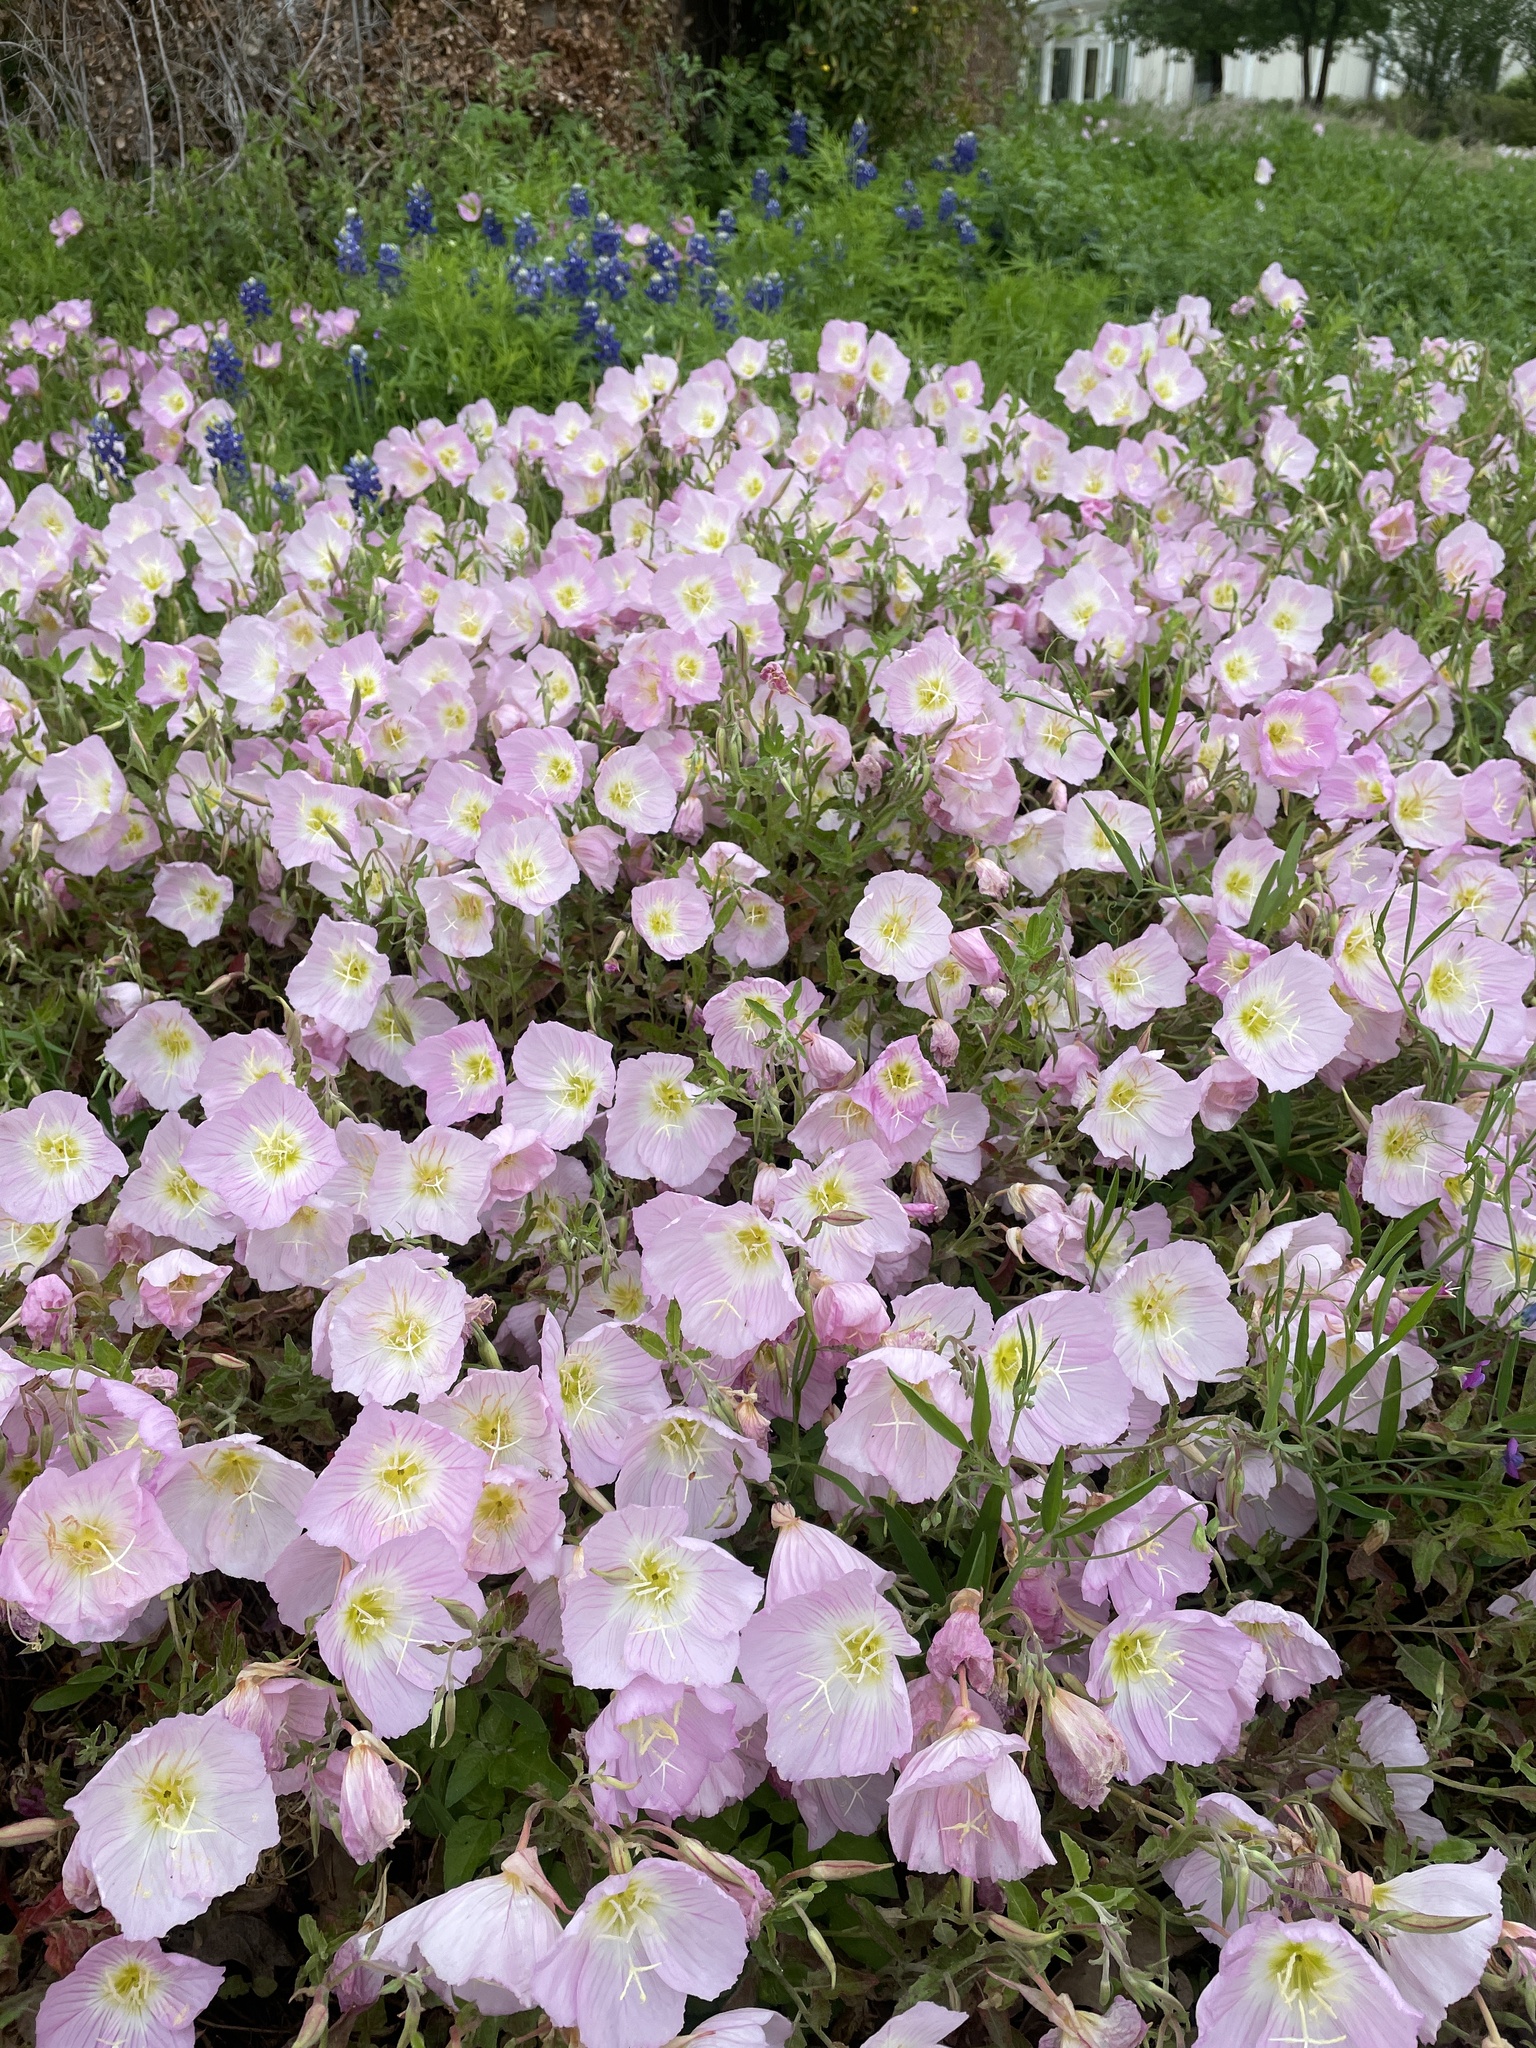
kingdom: Plantae
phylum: Tracheophyta
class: Magnoliopsida
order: Myrtales
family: Onagraceae
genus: Oenothera
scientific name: Oenothera speciosa
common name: White evening-primrose
